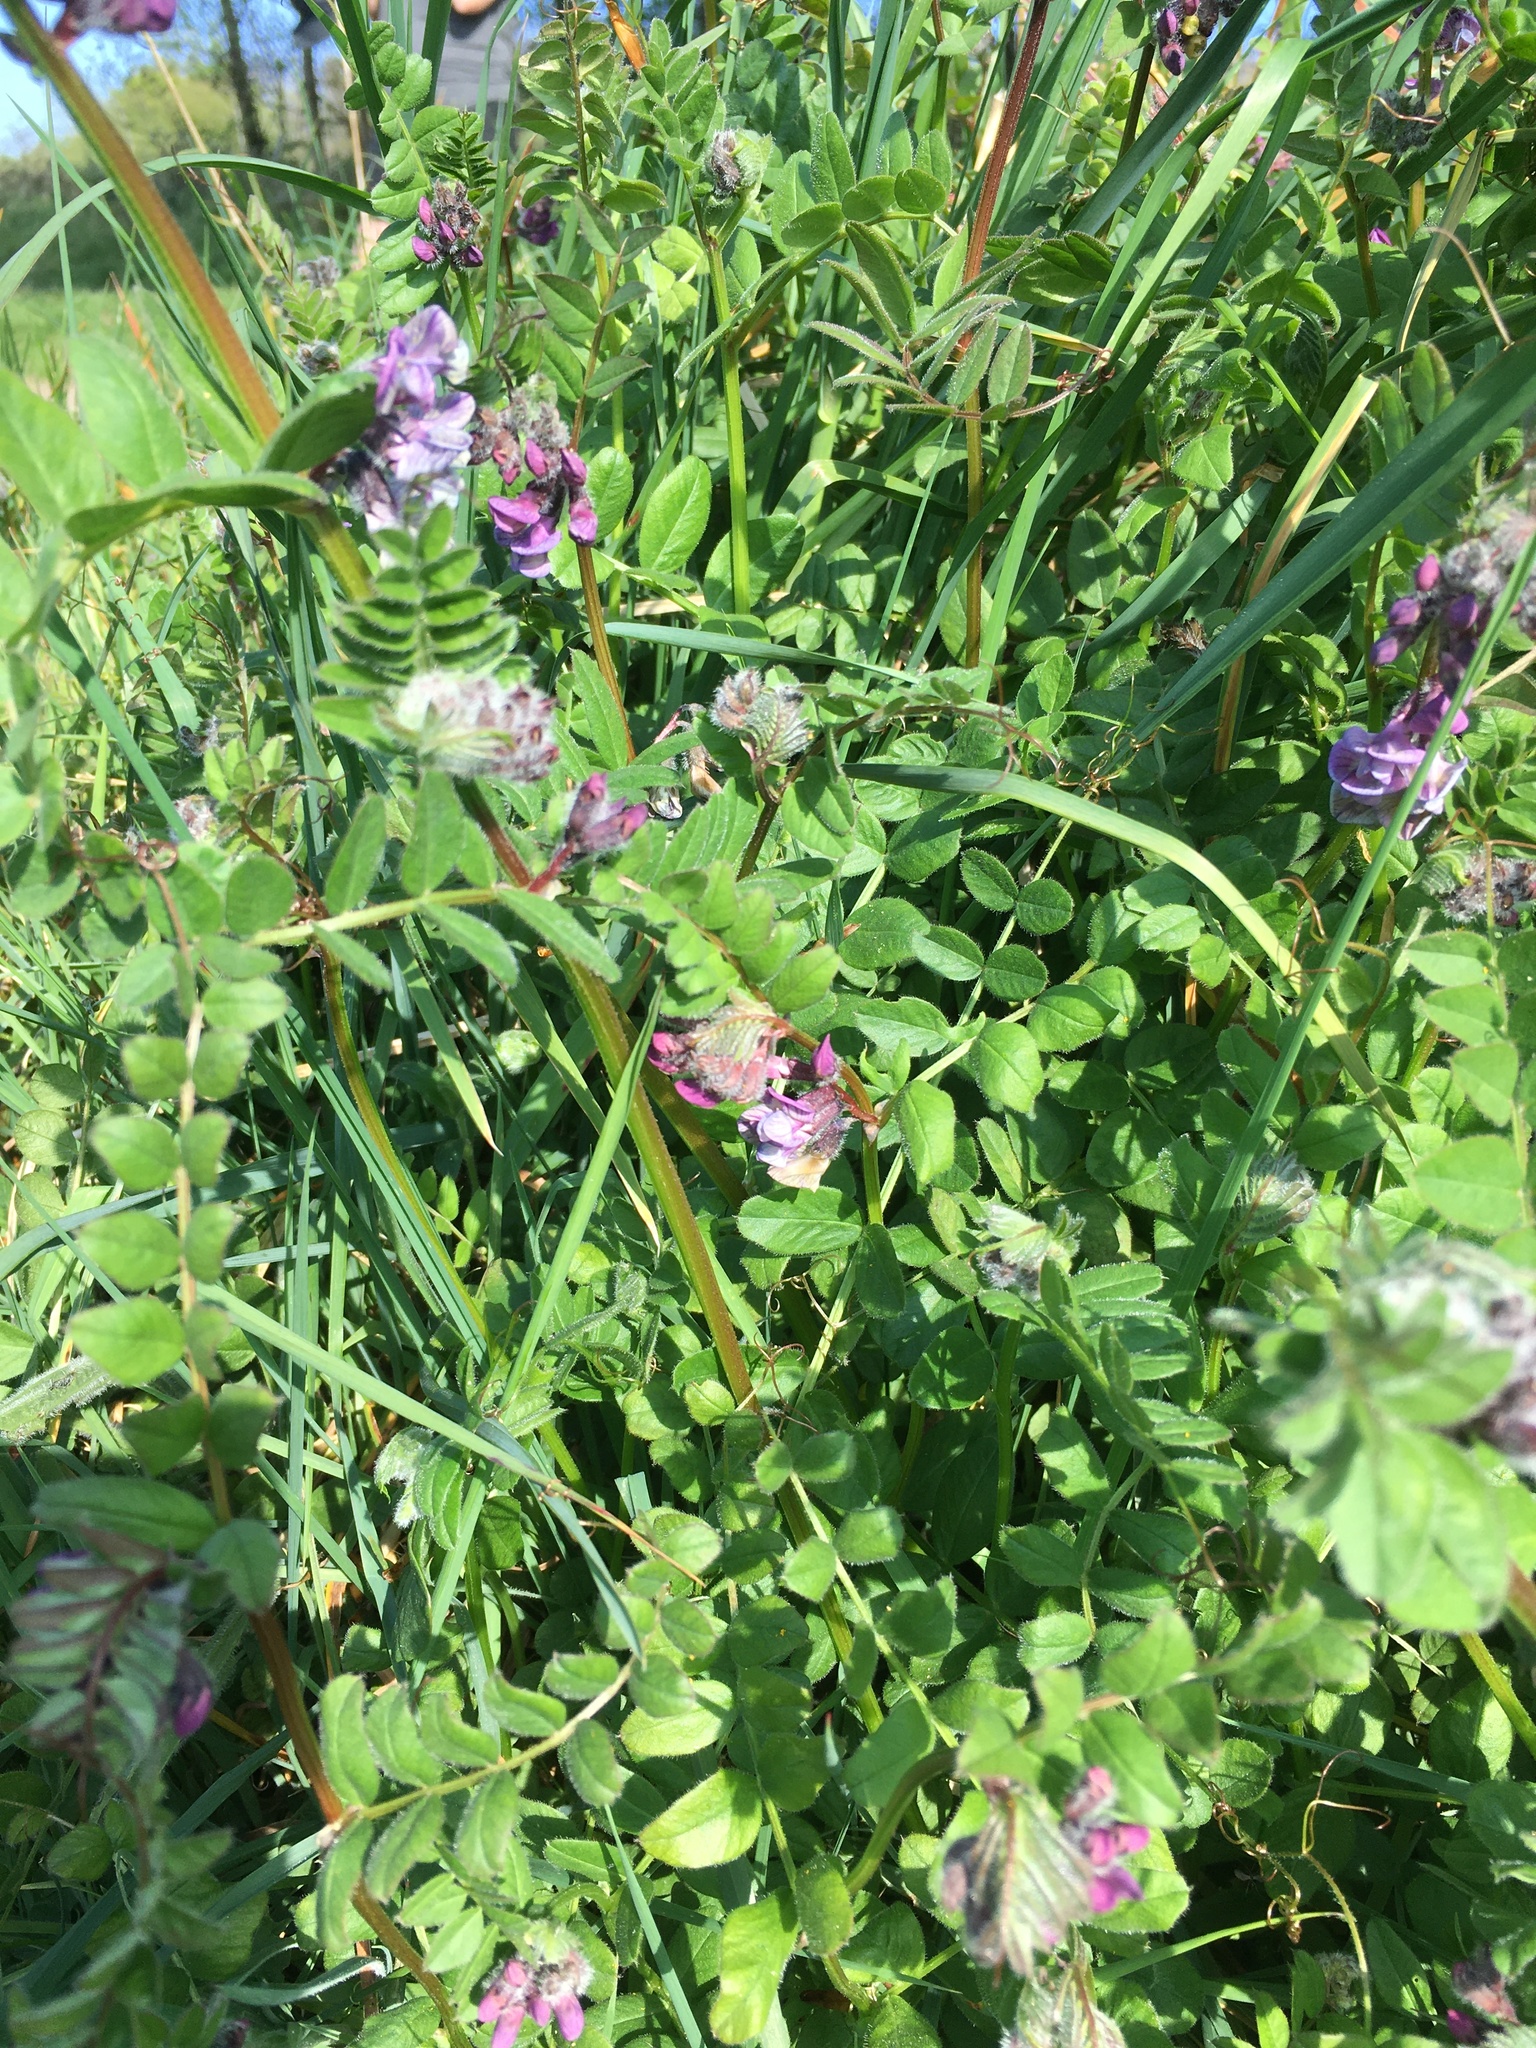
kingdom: Plantae
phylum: Tracheophyta
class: Magnoliopsida
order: Fabales
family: Fabaceae
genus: Vicia
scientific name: Vicia sepium
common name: Bush vetch
